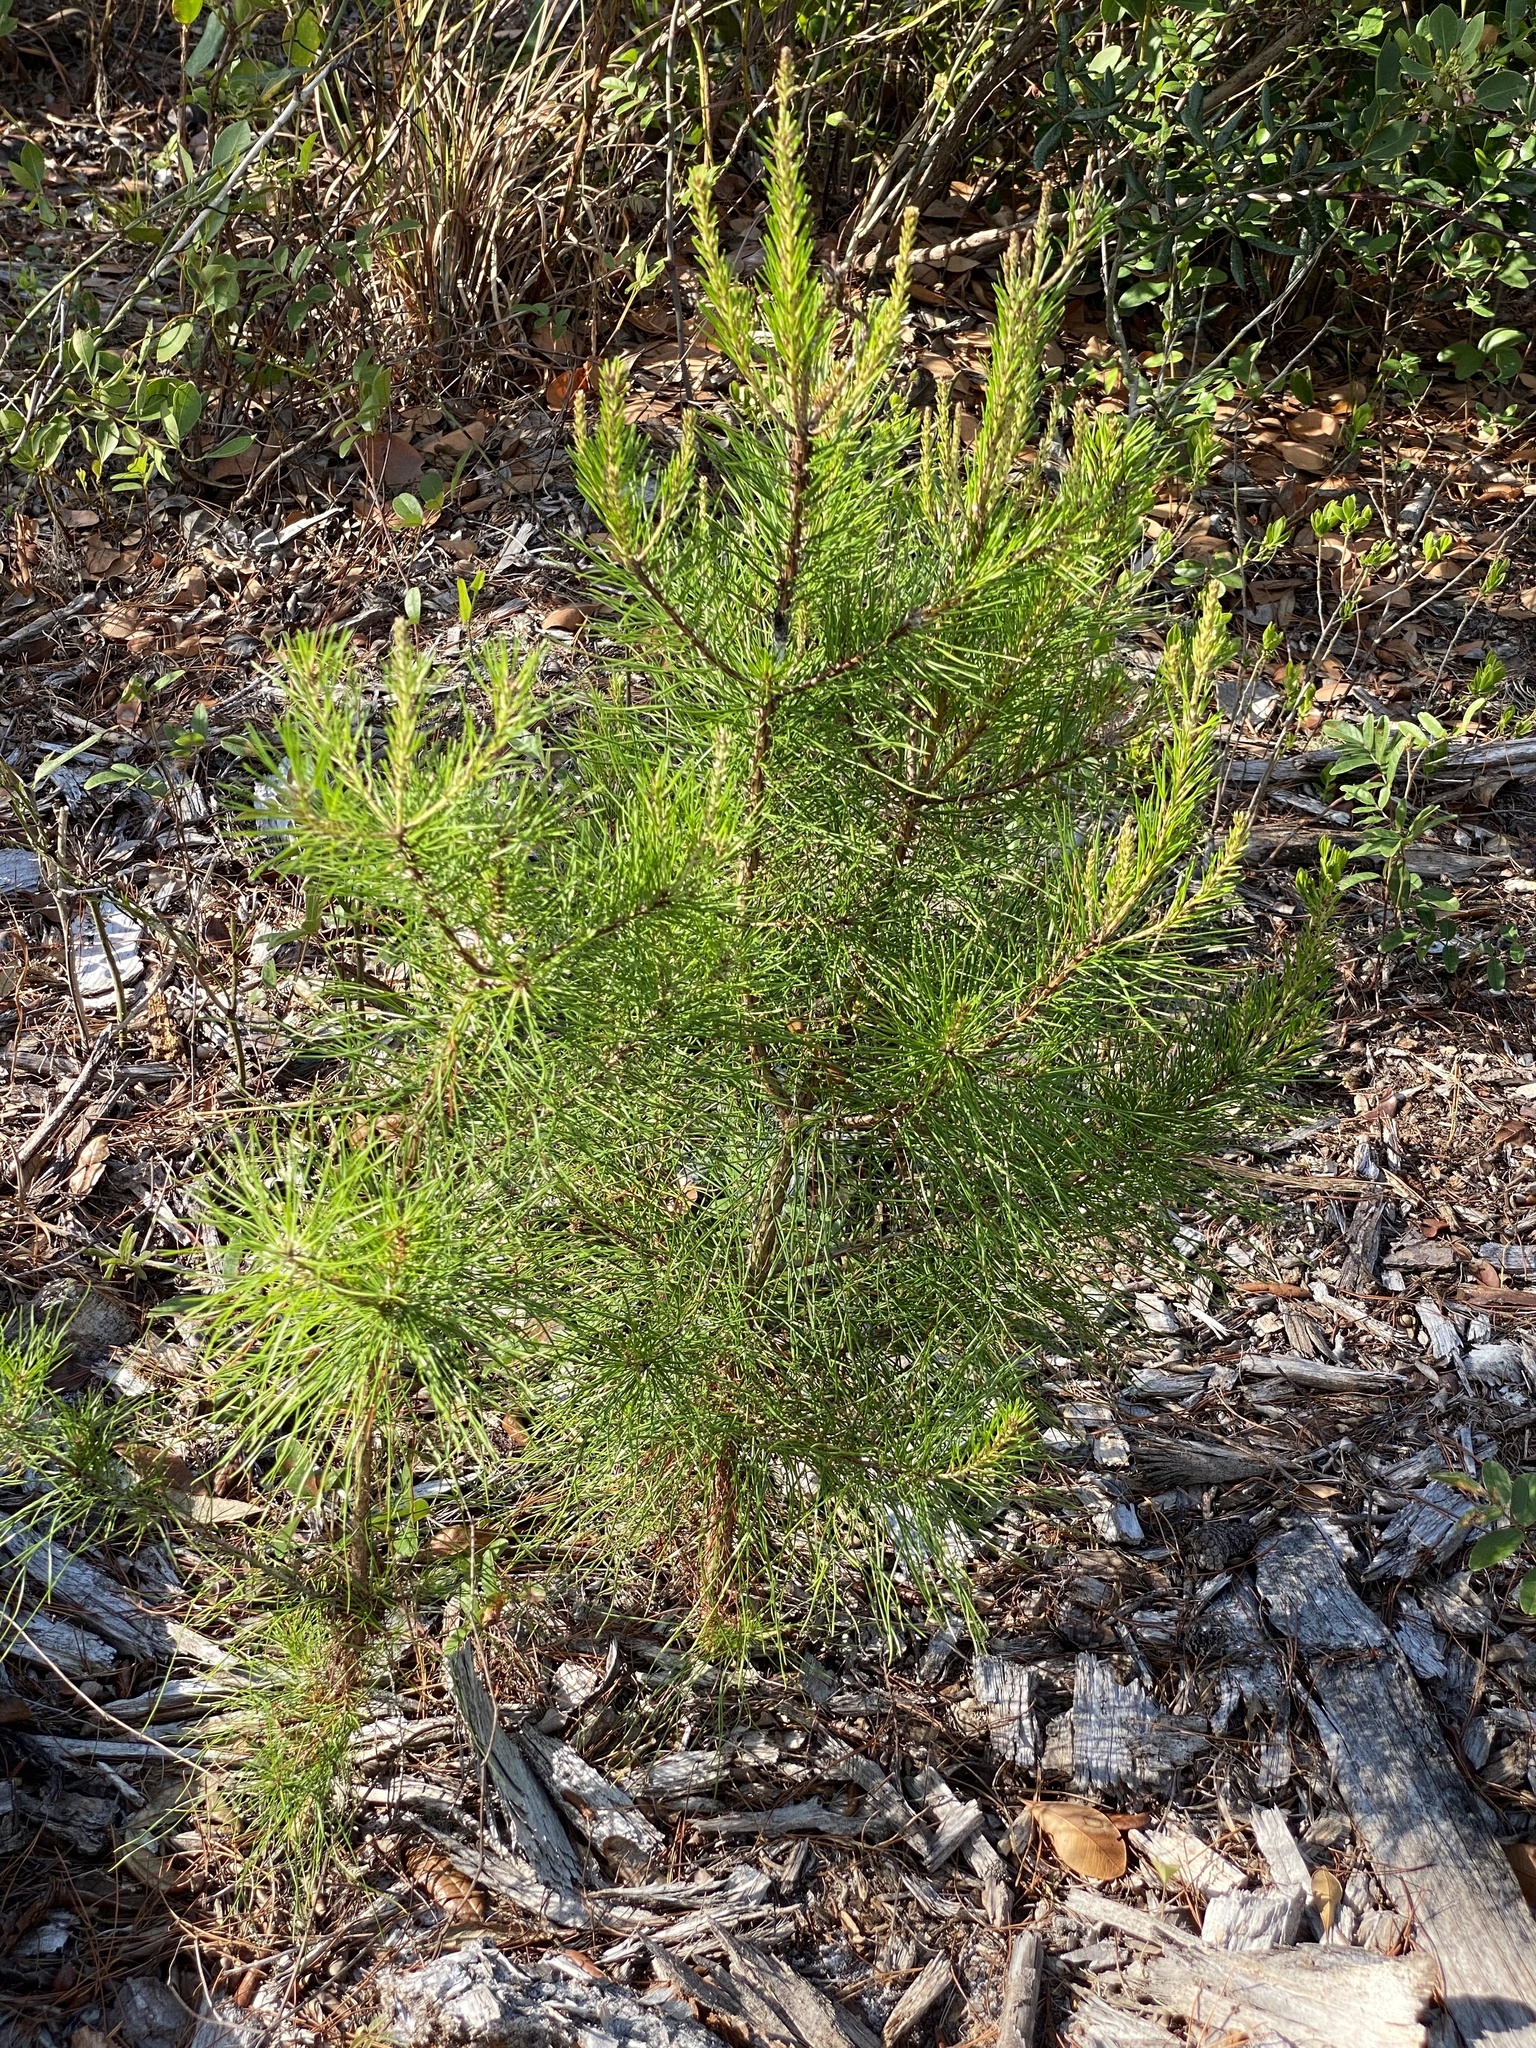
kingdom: Plantae
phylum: Tracheophyta
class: Pinopsida
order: Pinales
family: Pinaceae
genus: Pinus
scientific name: Pinus clausa
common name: Sand pine
